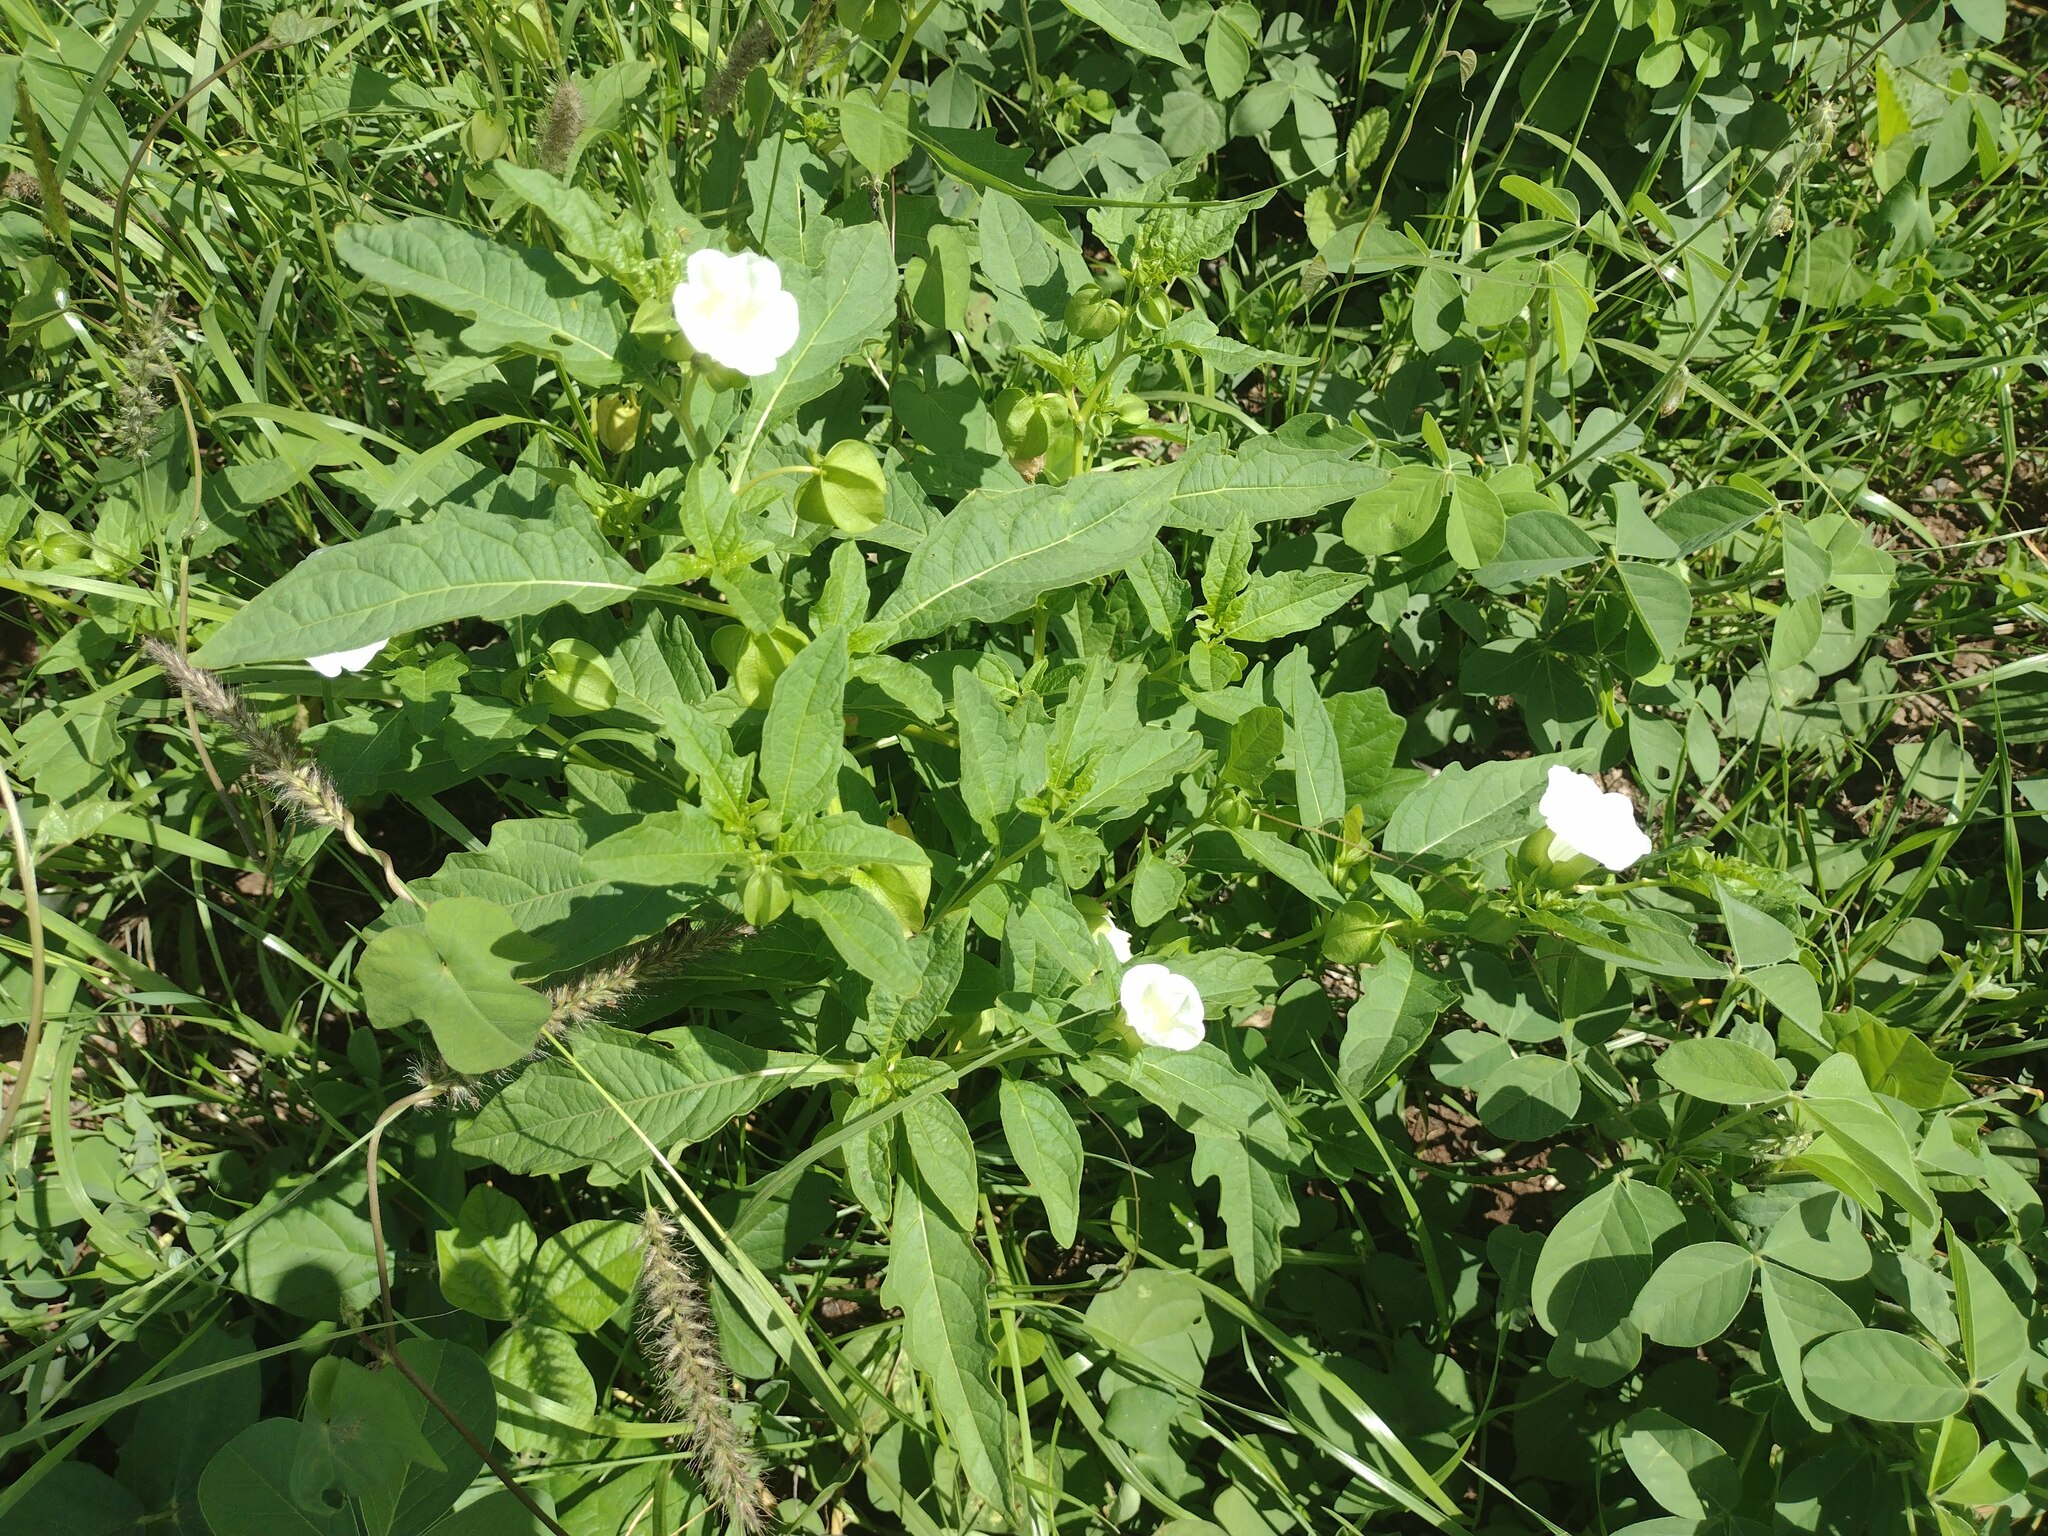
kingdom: Plantae
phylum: Tracheophyta
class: Magnoliopsida
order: Solanales
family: Solanaceae
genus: Nicandra
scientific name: Nicandra physalodes
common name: Apple-of-peru
